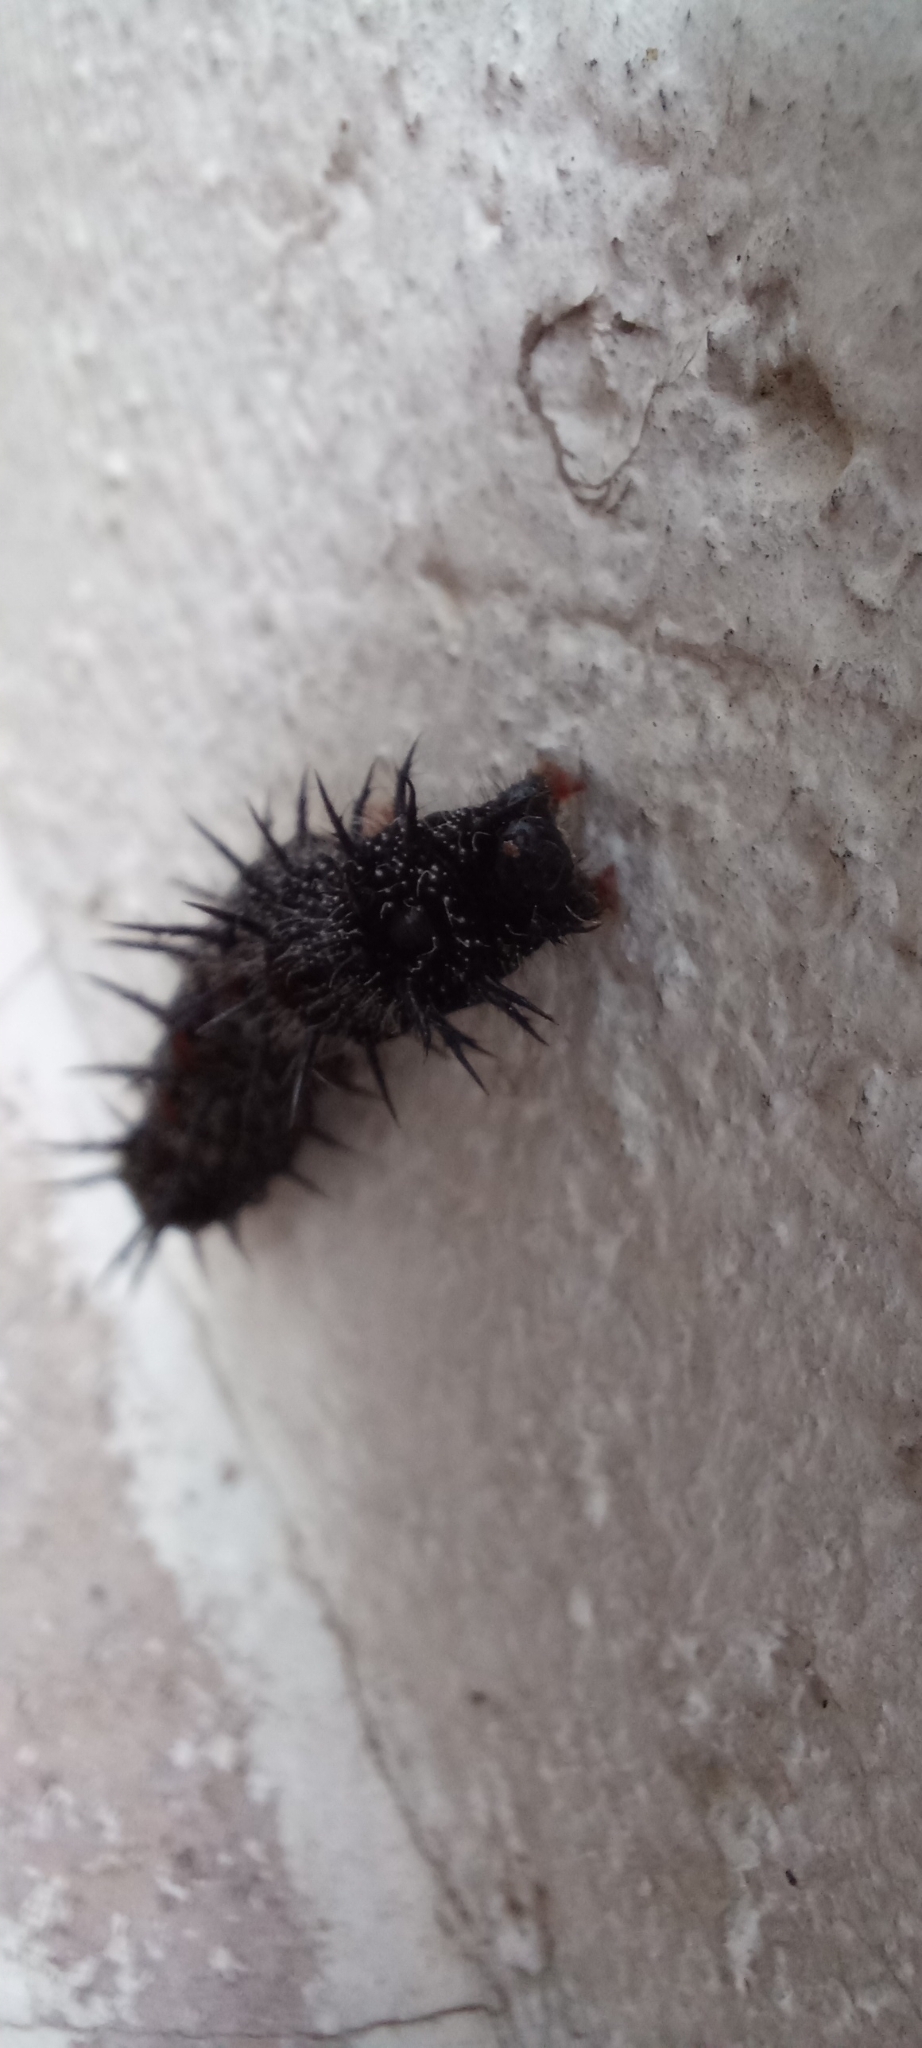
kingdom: Animalia
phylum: Arthropoda
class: Insecta
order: Lepidoptera
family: Nymphalidae
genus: Nymphalis
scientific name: Nymphalis antiopa
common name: Camberwell beauty
